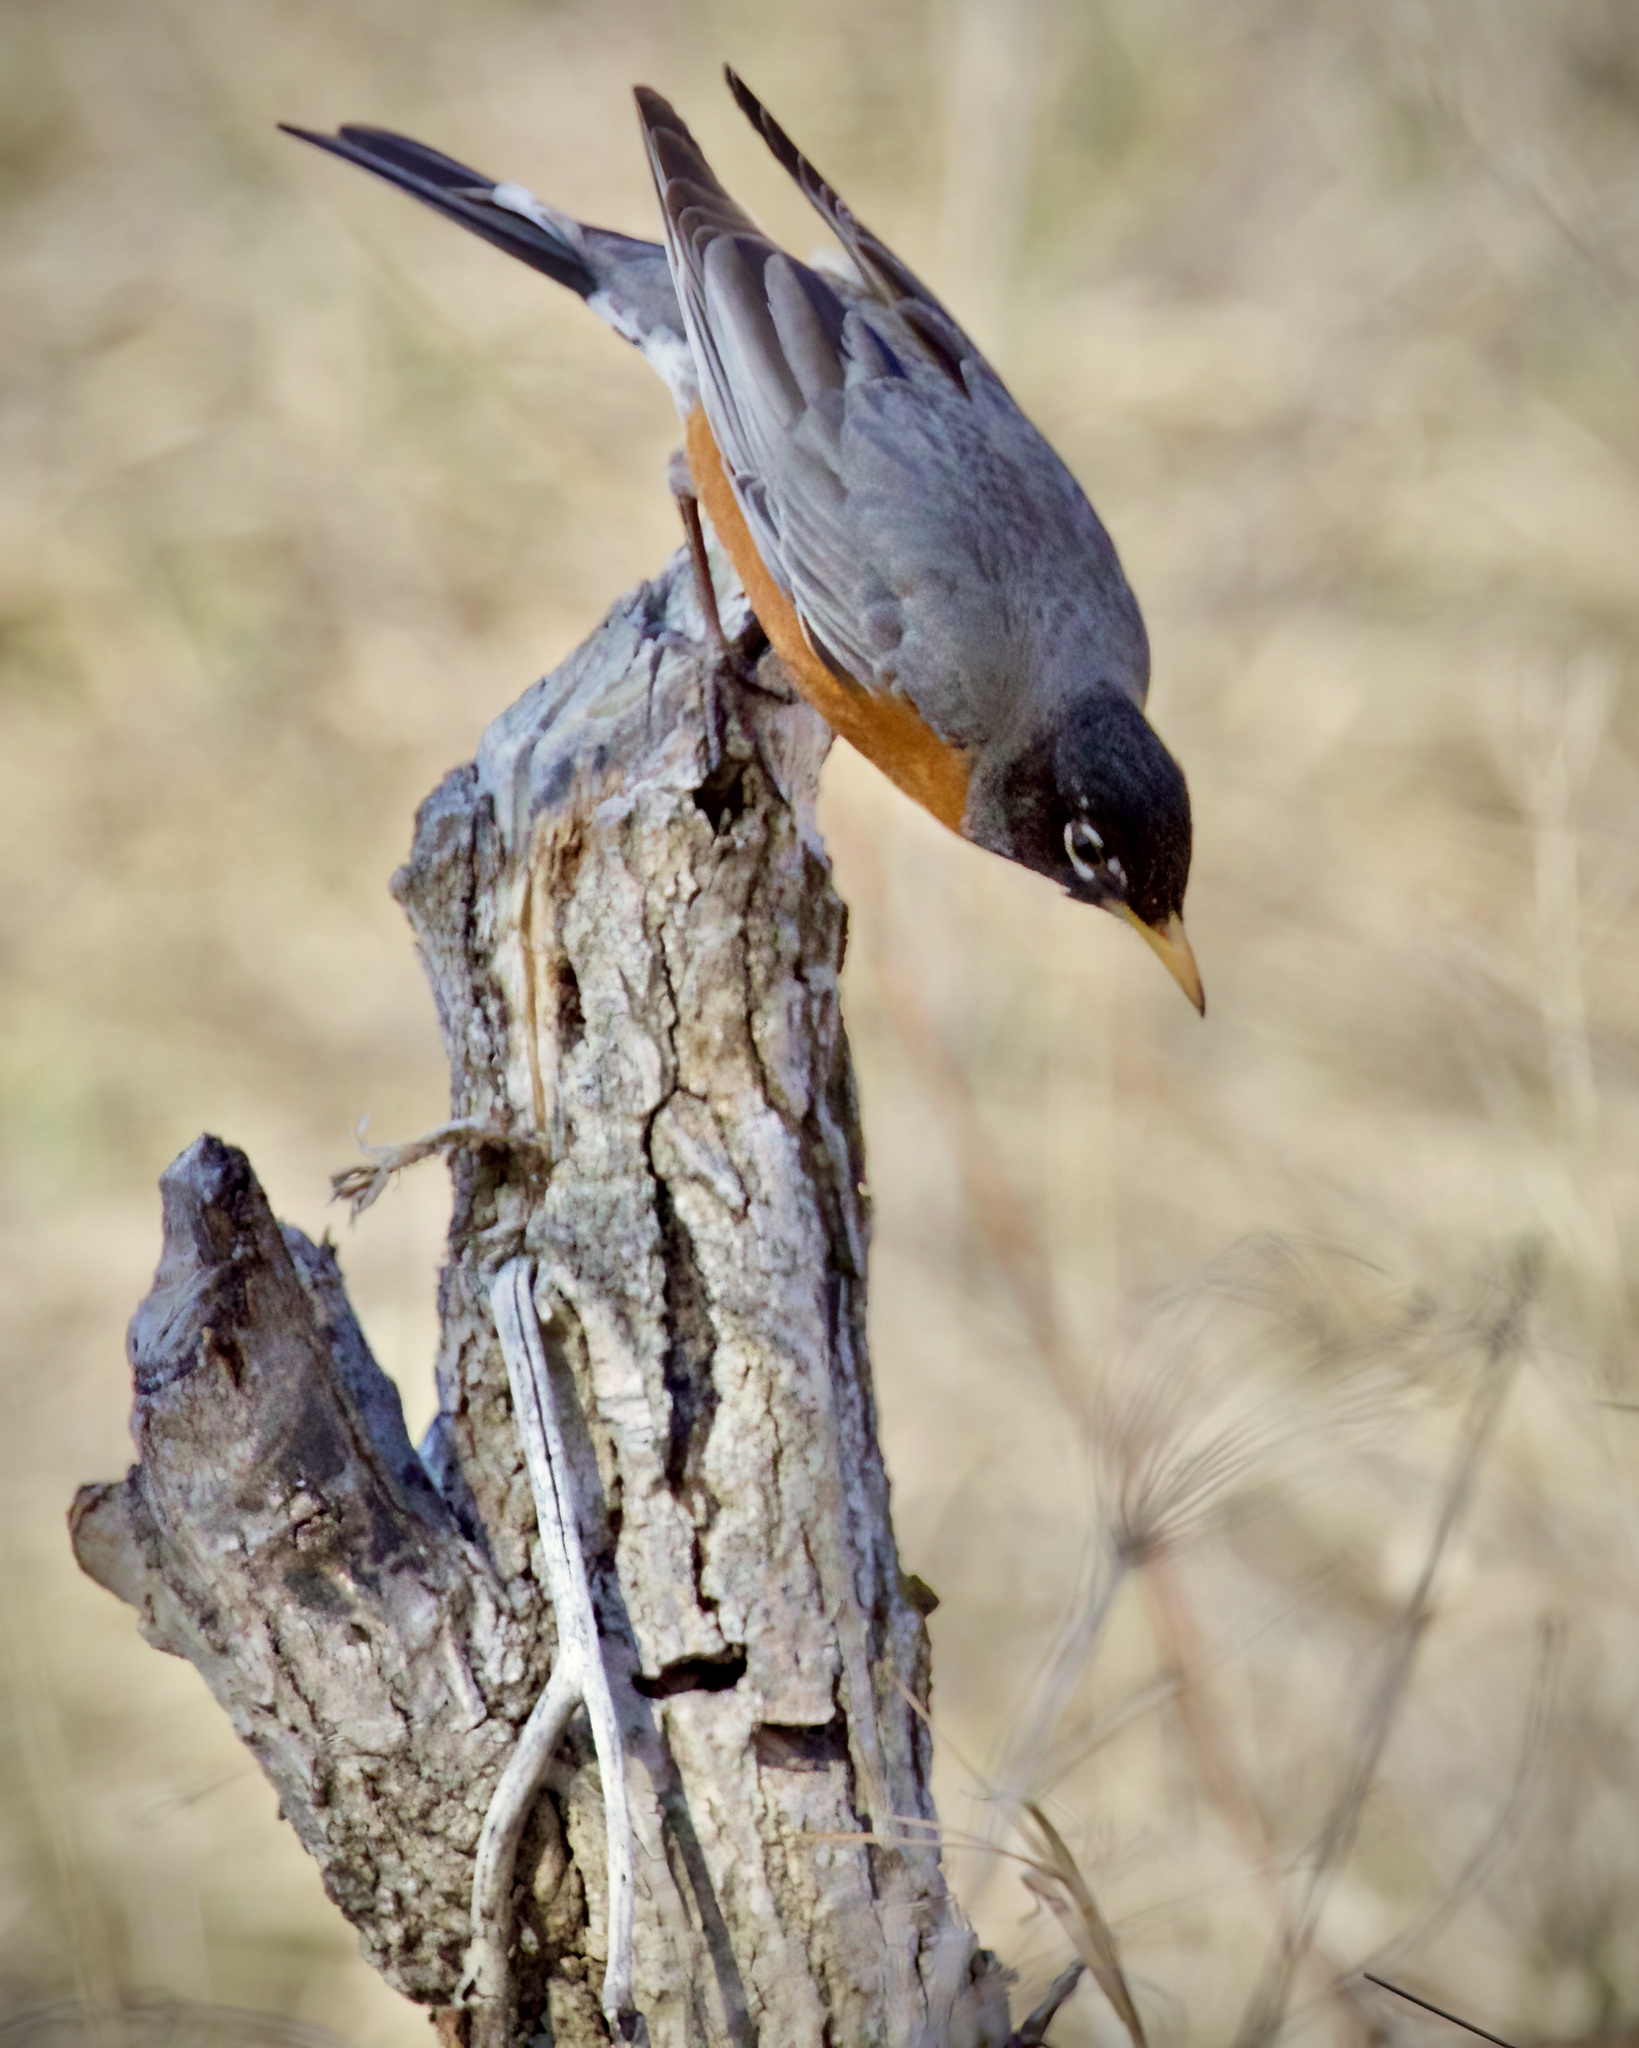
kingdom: Animalia
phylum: Chordata
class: Aves
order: Passeriformes
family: Turdidae
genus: Turdus
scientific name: Turdus migratorius
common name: American robin
